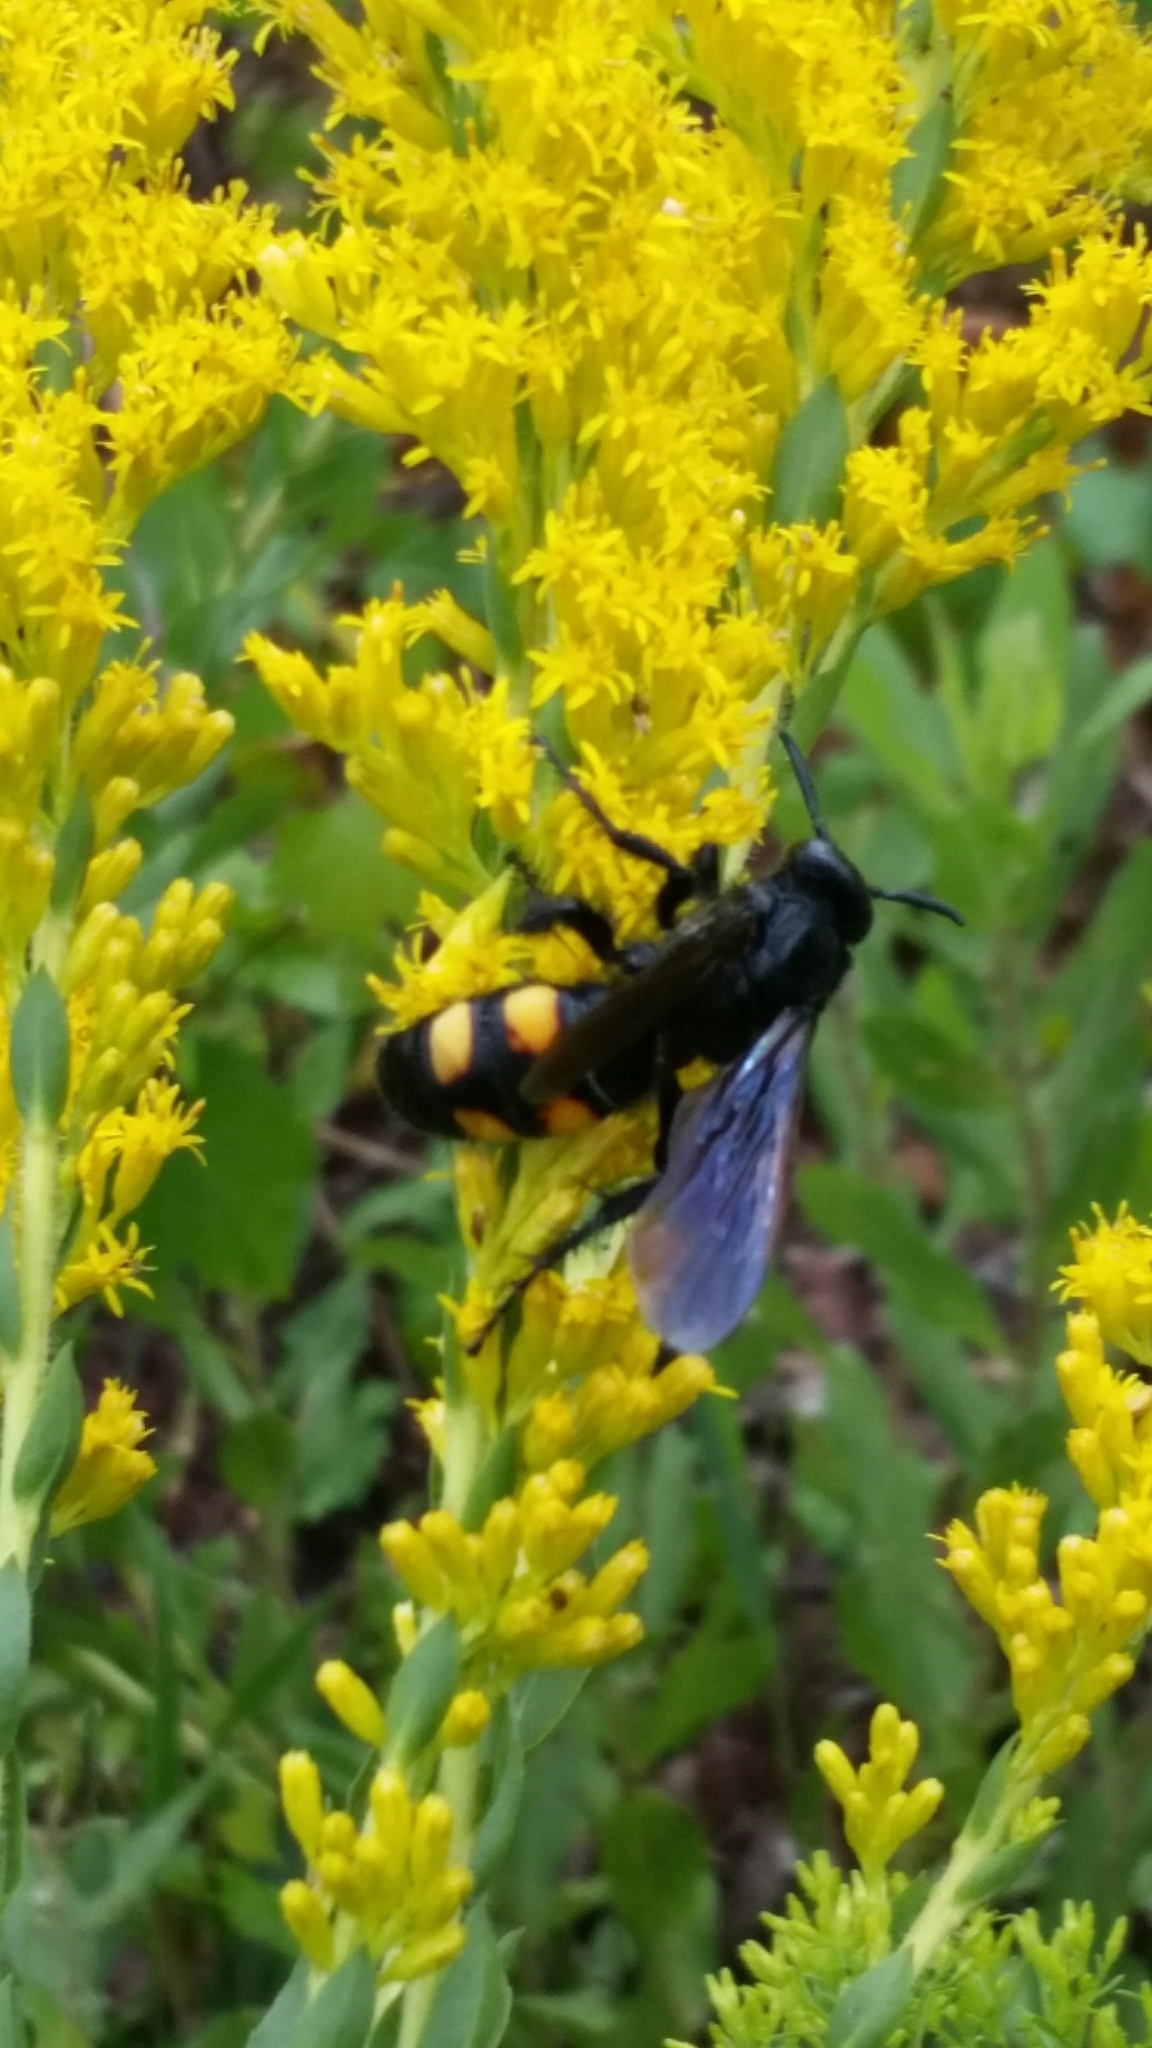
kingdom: Animalia
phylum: Arthropoda
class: Insecta
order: Hymenoptera
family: Scoliidae
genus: Pygodasis
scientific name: Pygodasis
